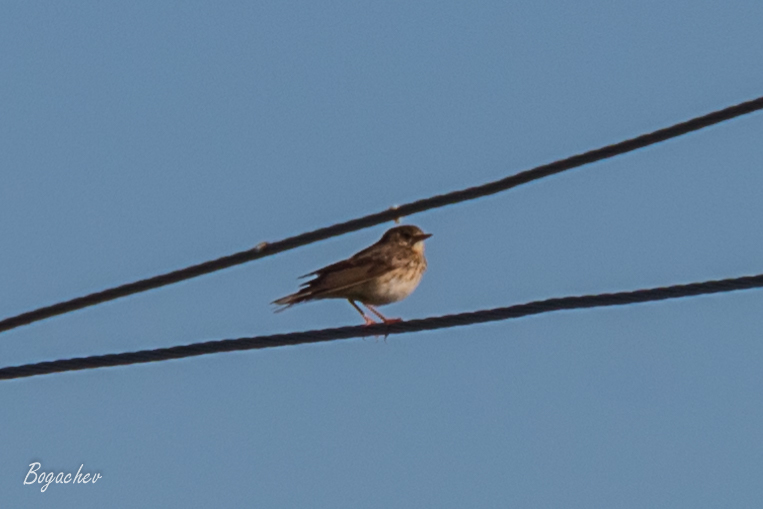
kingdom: Animalia
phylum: Chordata
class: Aves
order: Passeriformes
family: Motacillidae
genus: Anthus
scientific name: Anthus trivialis
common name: Tree pipit
